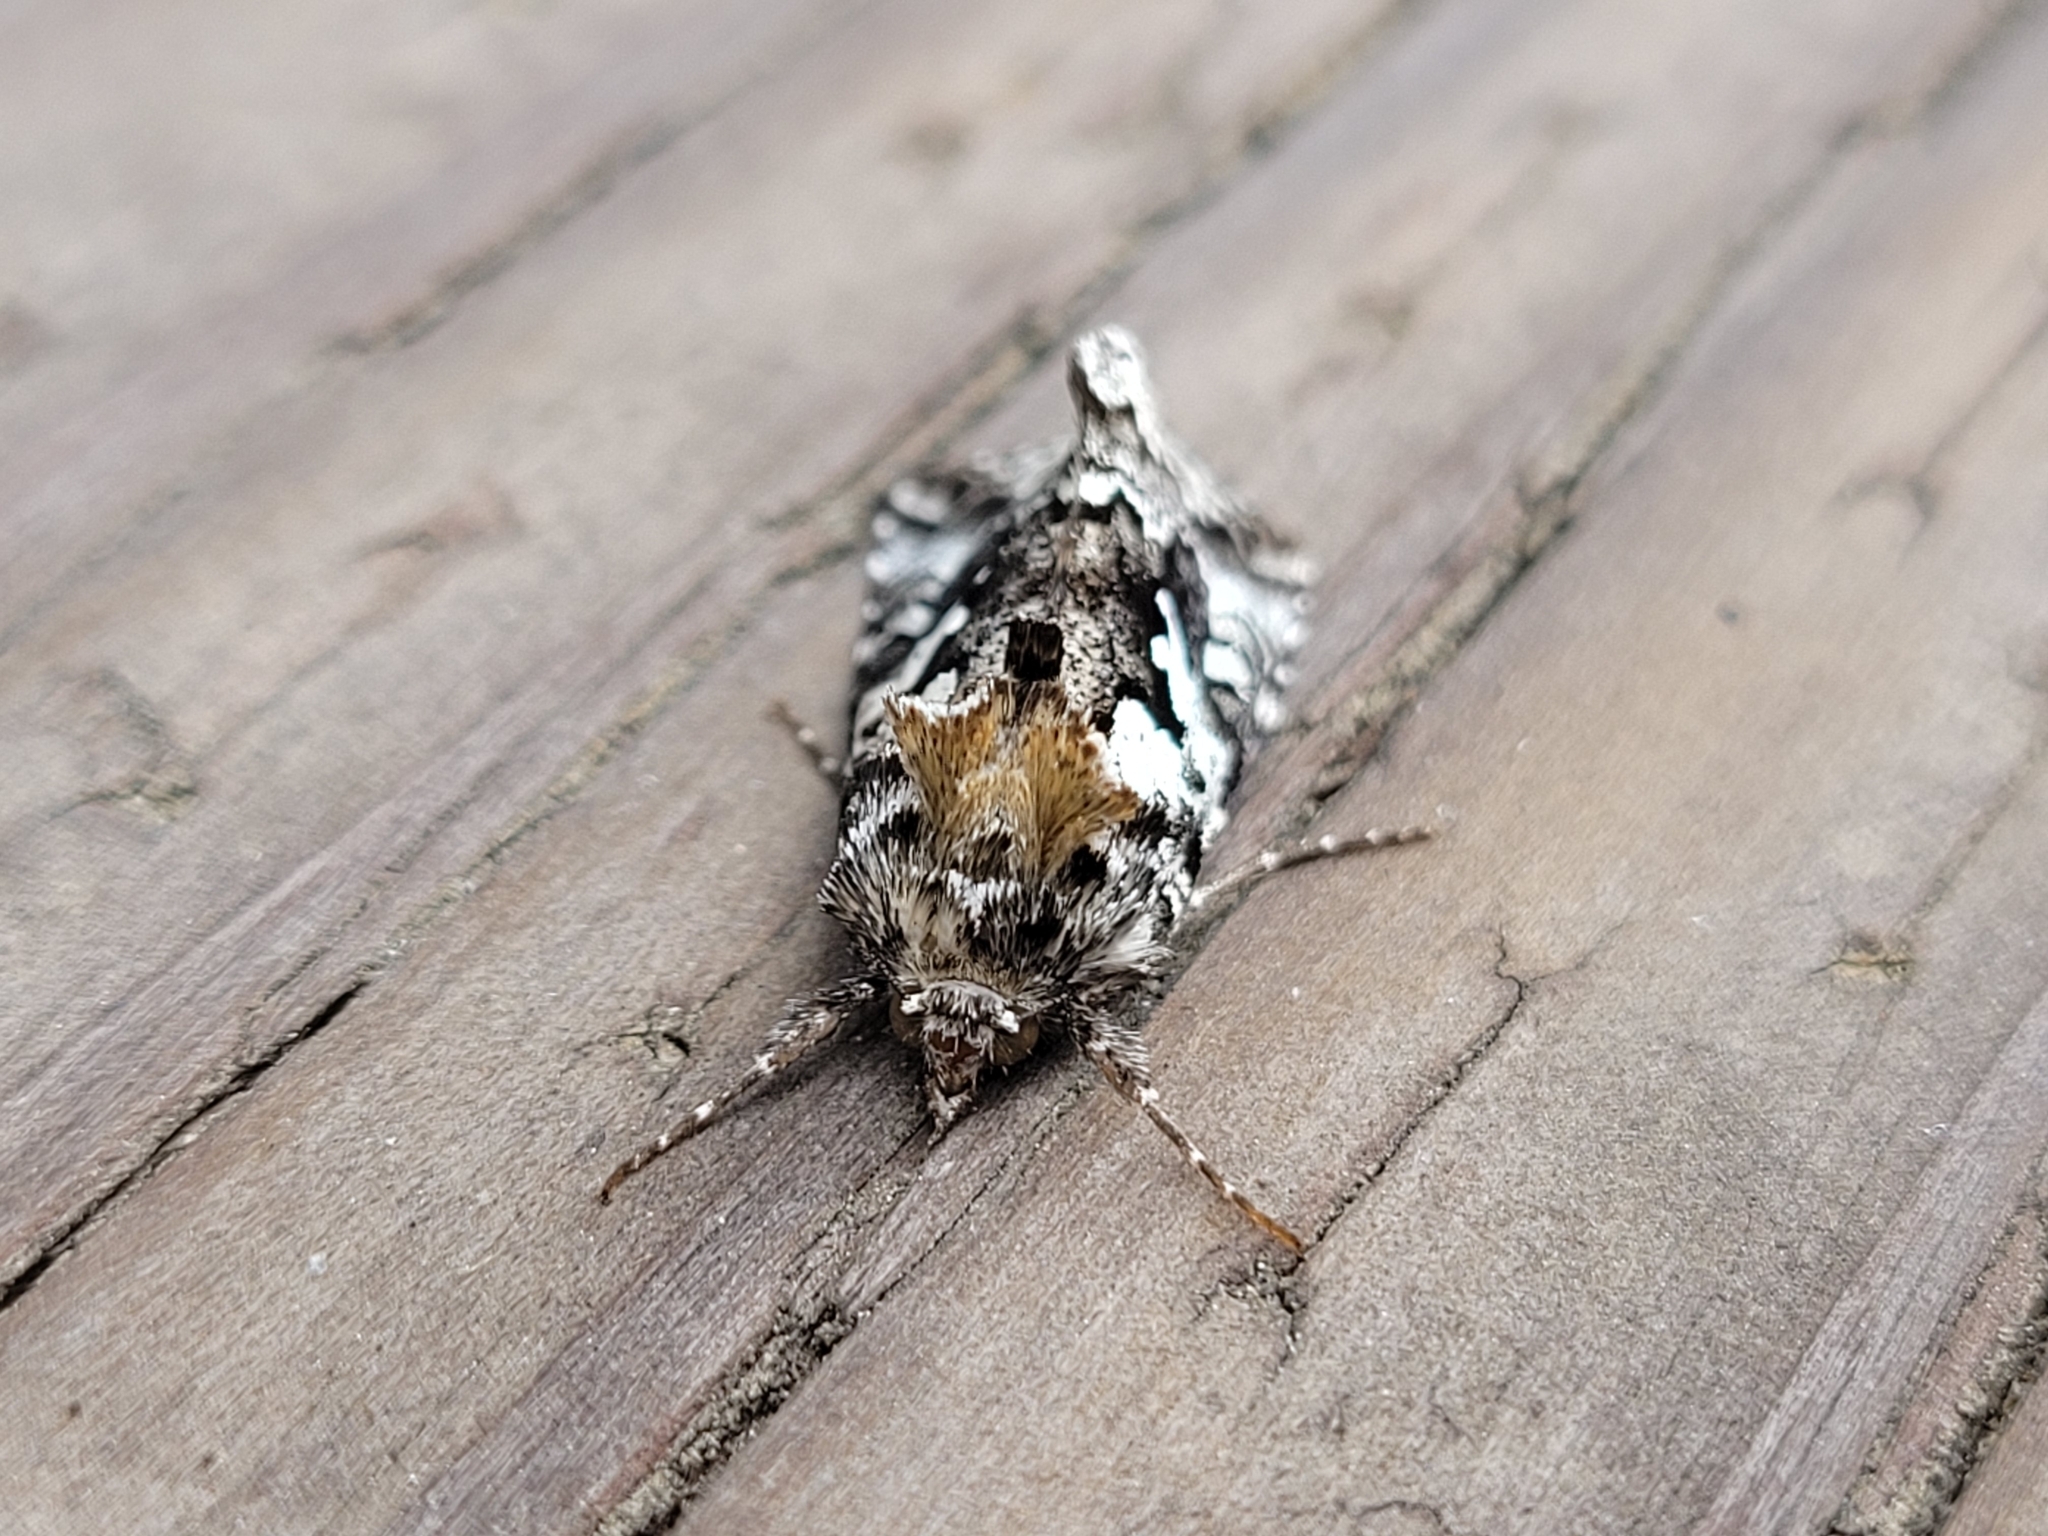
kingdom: Animalia
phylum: Arthropoda
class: Insecta
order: Lepidoptera
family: Noctuidae
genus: Syngrapha
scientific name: Syngrapha rectangula
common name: Angulated cutworm
